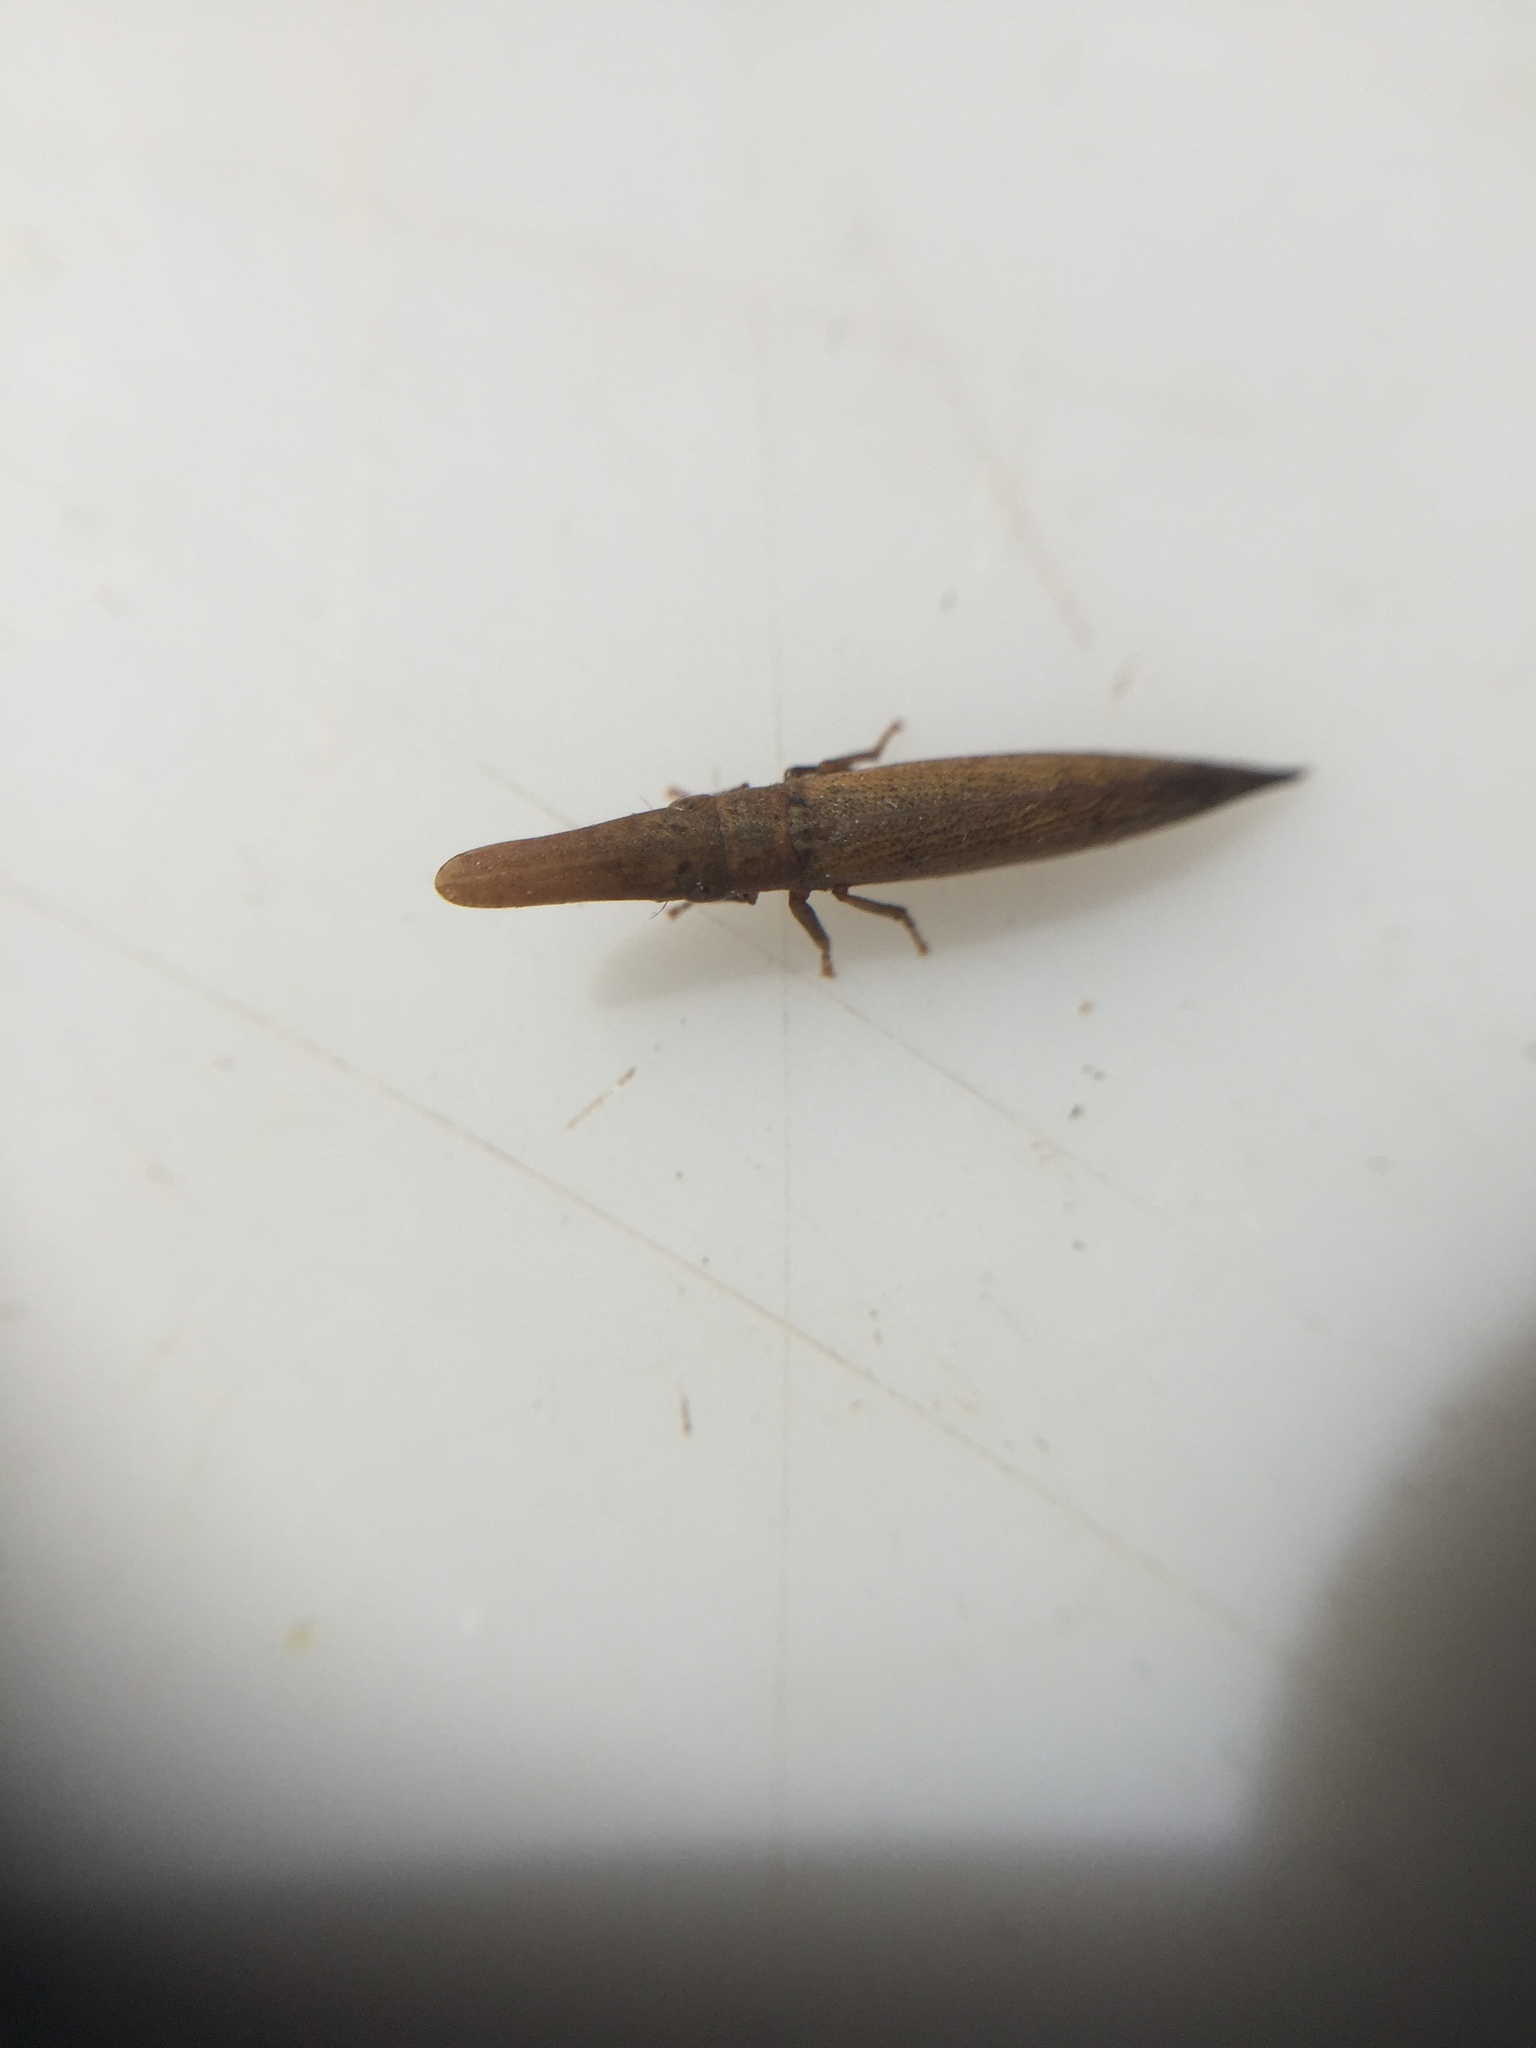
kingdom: Animalia
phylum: Arthropoda
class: Insecta
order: Hemiptera
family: Cicadellidae
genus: Paracephaleus
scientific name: Paracephaleus hudsoni
